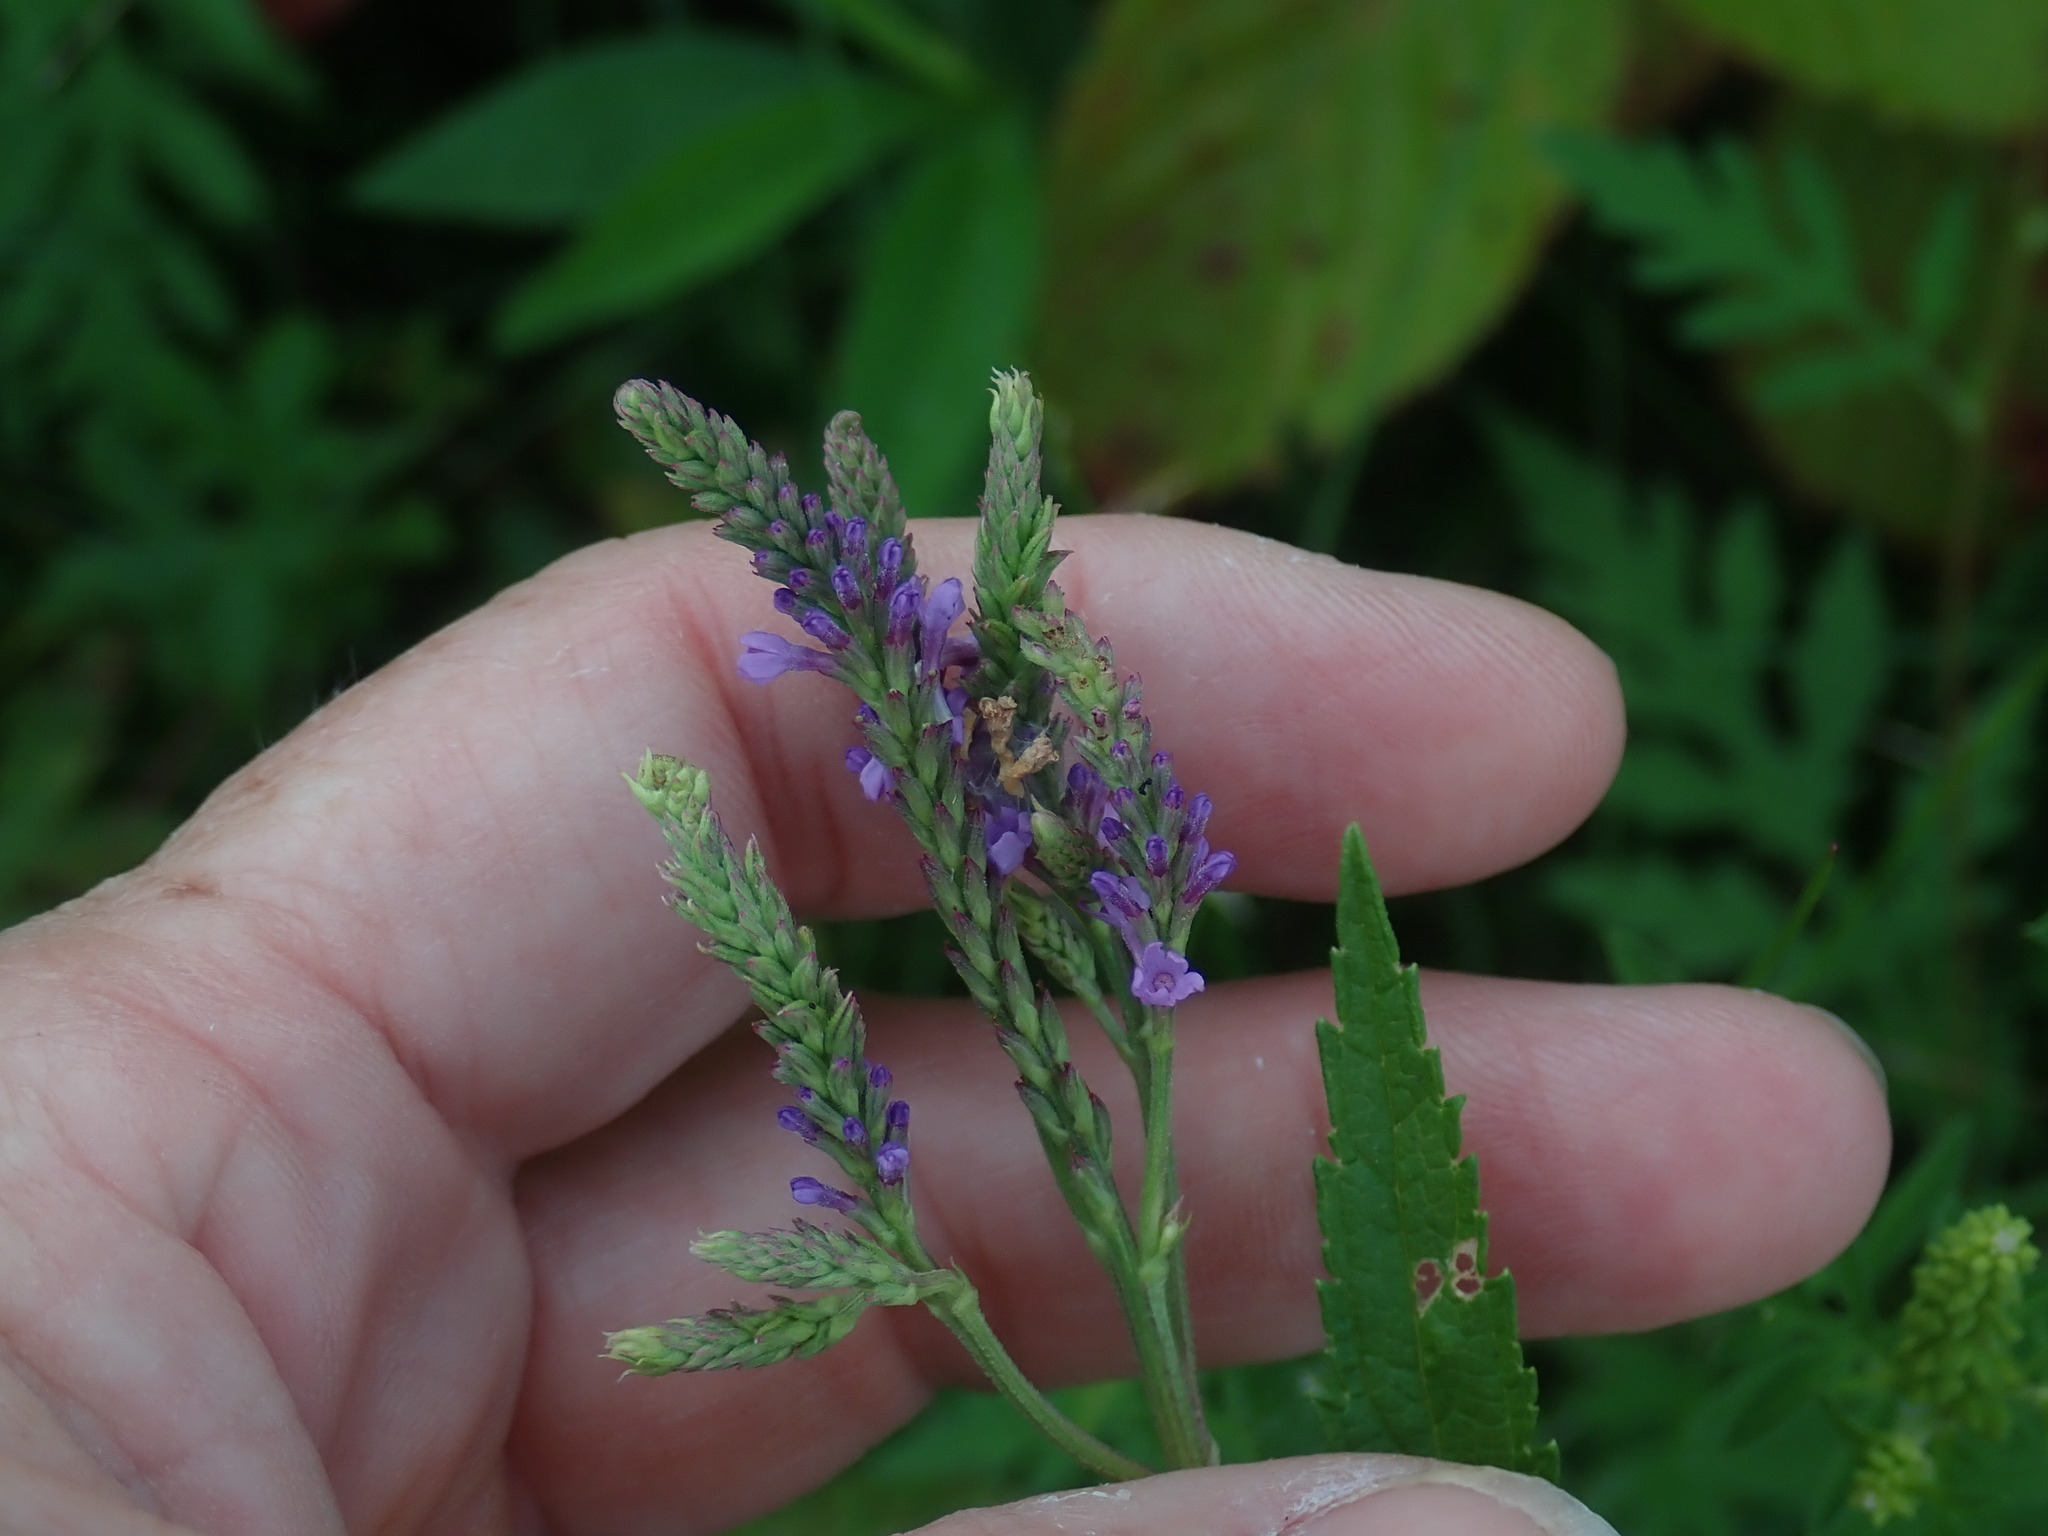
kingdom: Plantae
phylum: Tracheophyta
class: Magnoliopsida
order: Lamiales
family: Verbenaceae
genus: Verbena
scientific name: Verbena hastata
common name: American blue vervain
